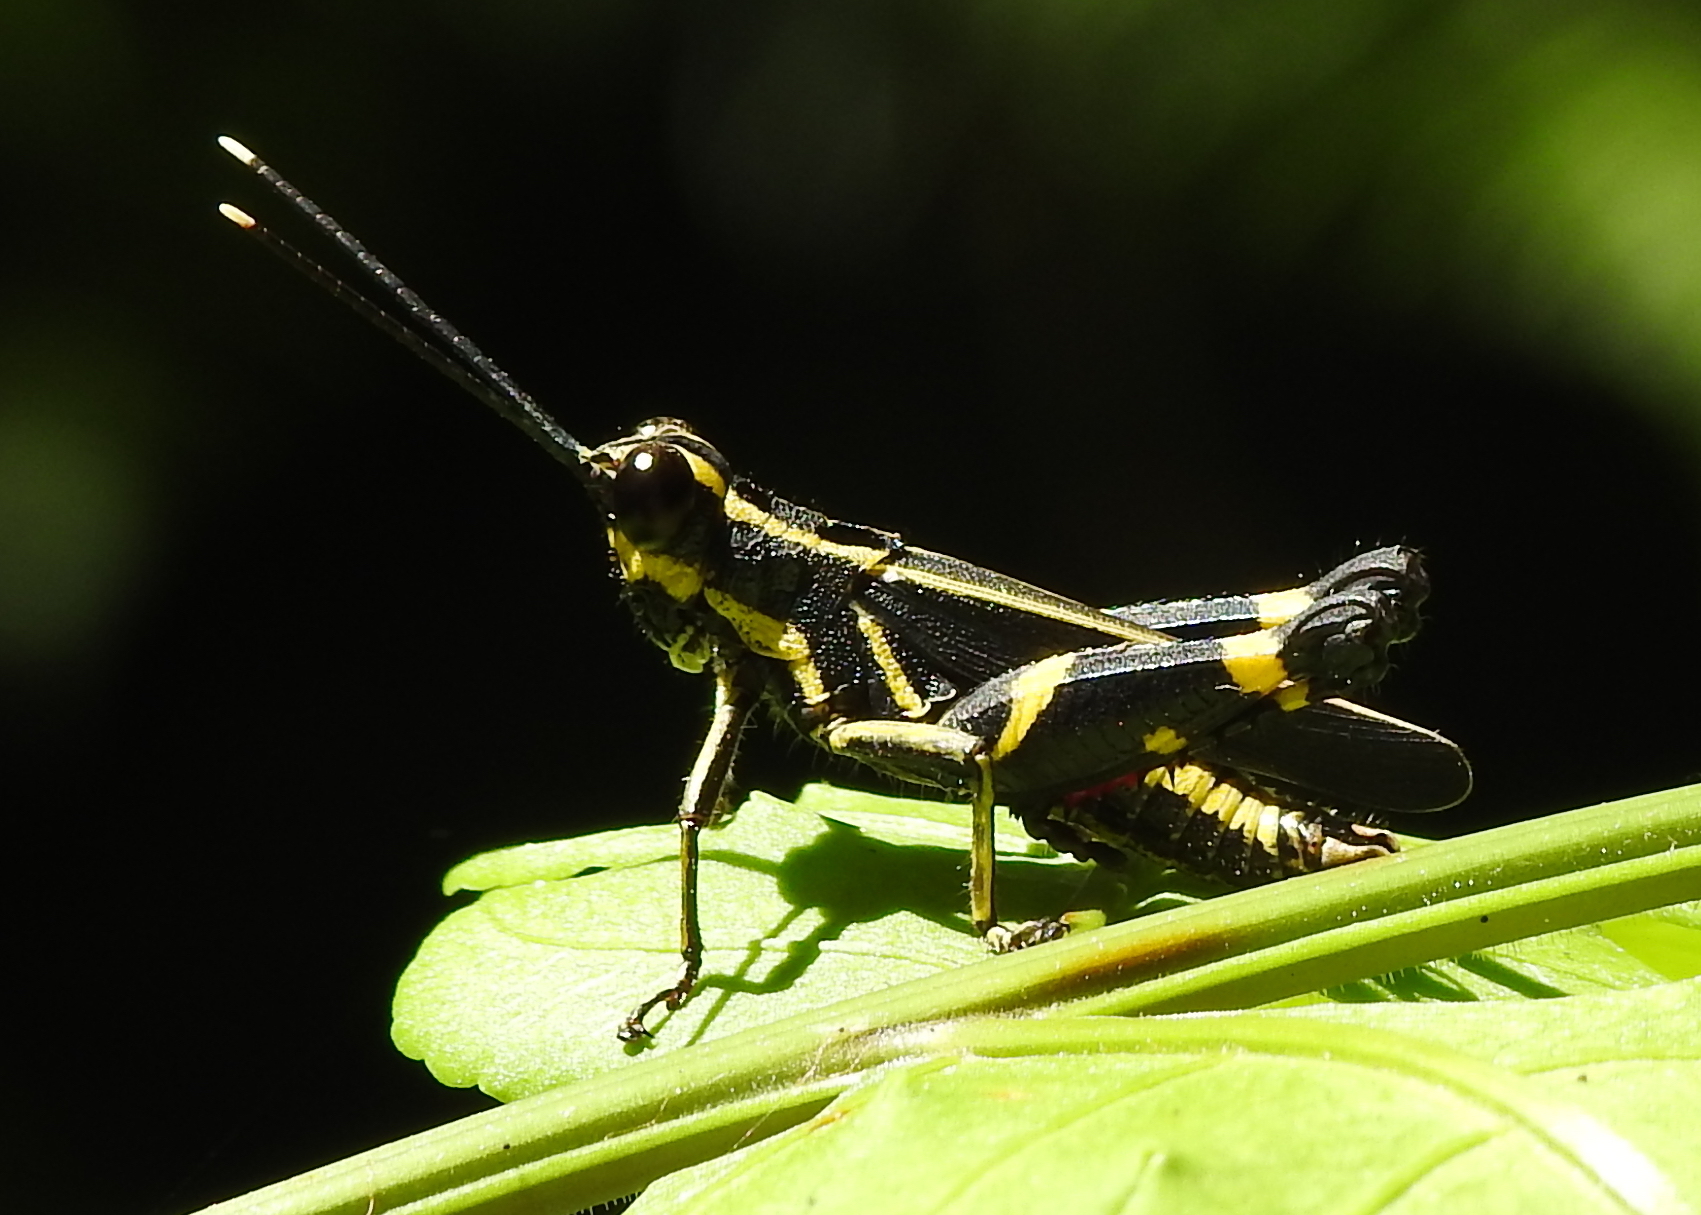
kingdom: Animalia
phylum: Arthropoda
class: Insecta
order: Orthoptera
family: Acrididae
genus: Traulia
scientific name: Traulia azureipennis
